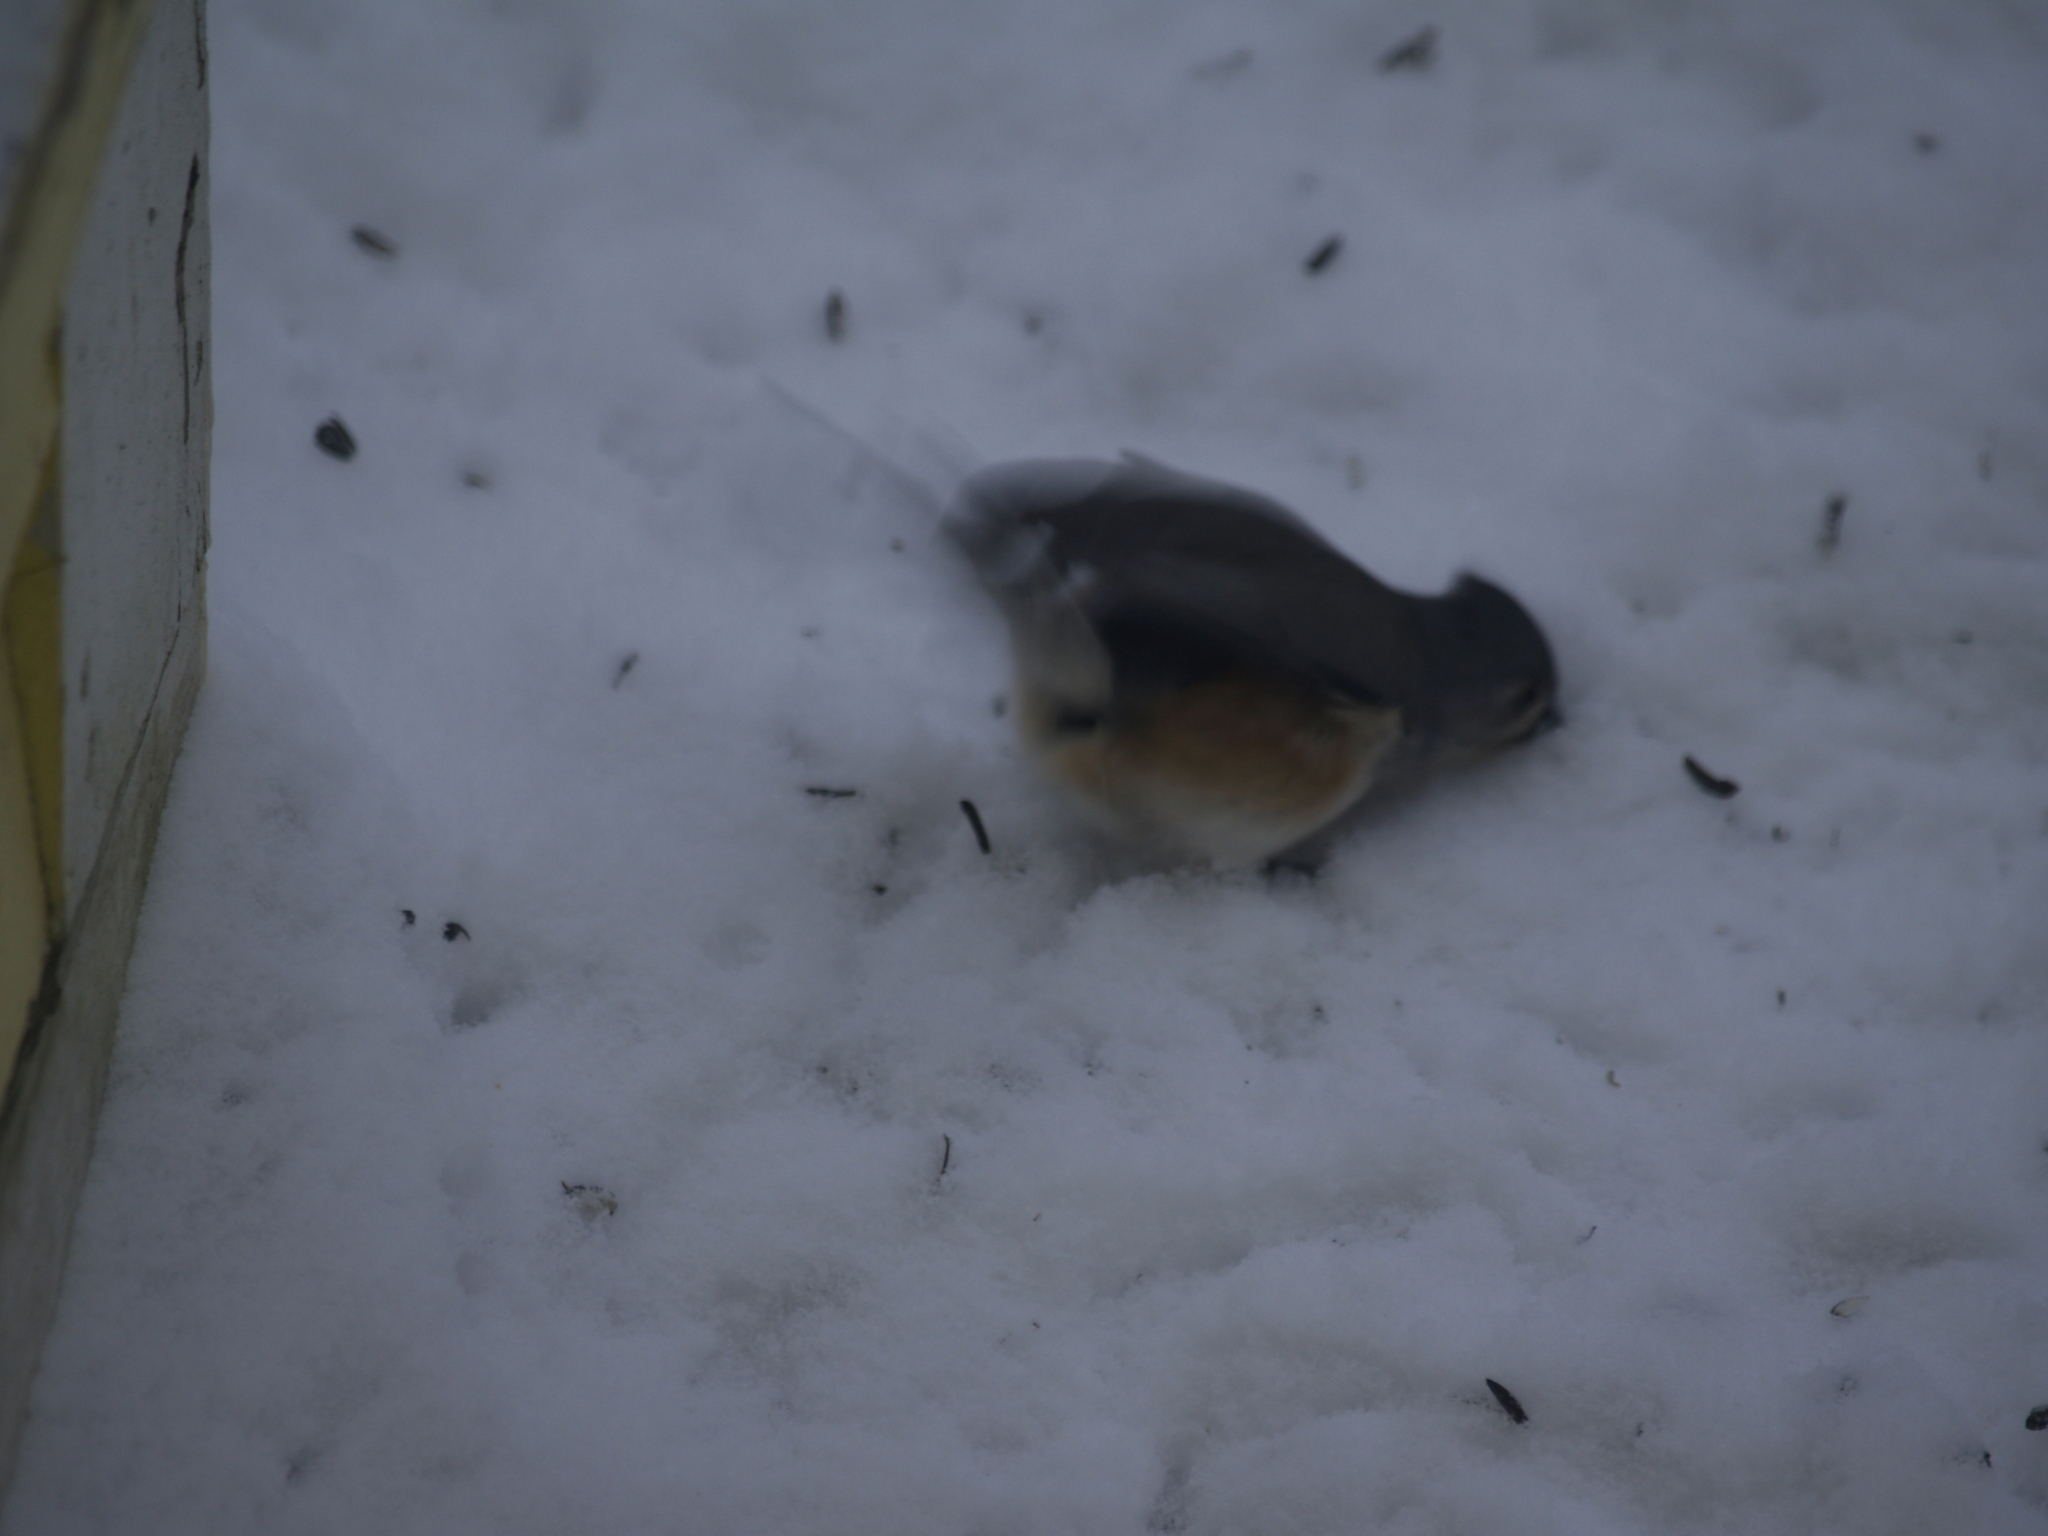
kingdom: Animalia
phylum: Chordata
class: Aves
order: Passeriformes
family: Paridae
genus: Baeolophus
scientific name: Baeolophus bicolor
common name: Tufted titmouse
